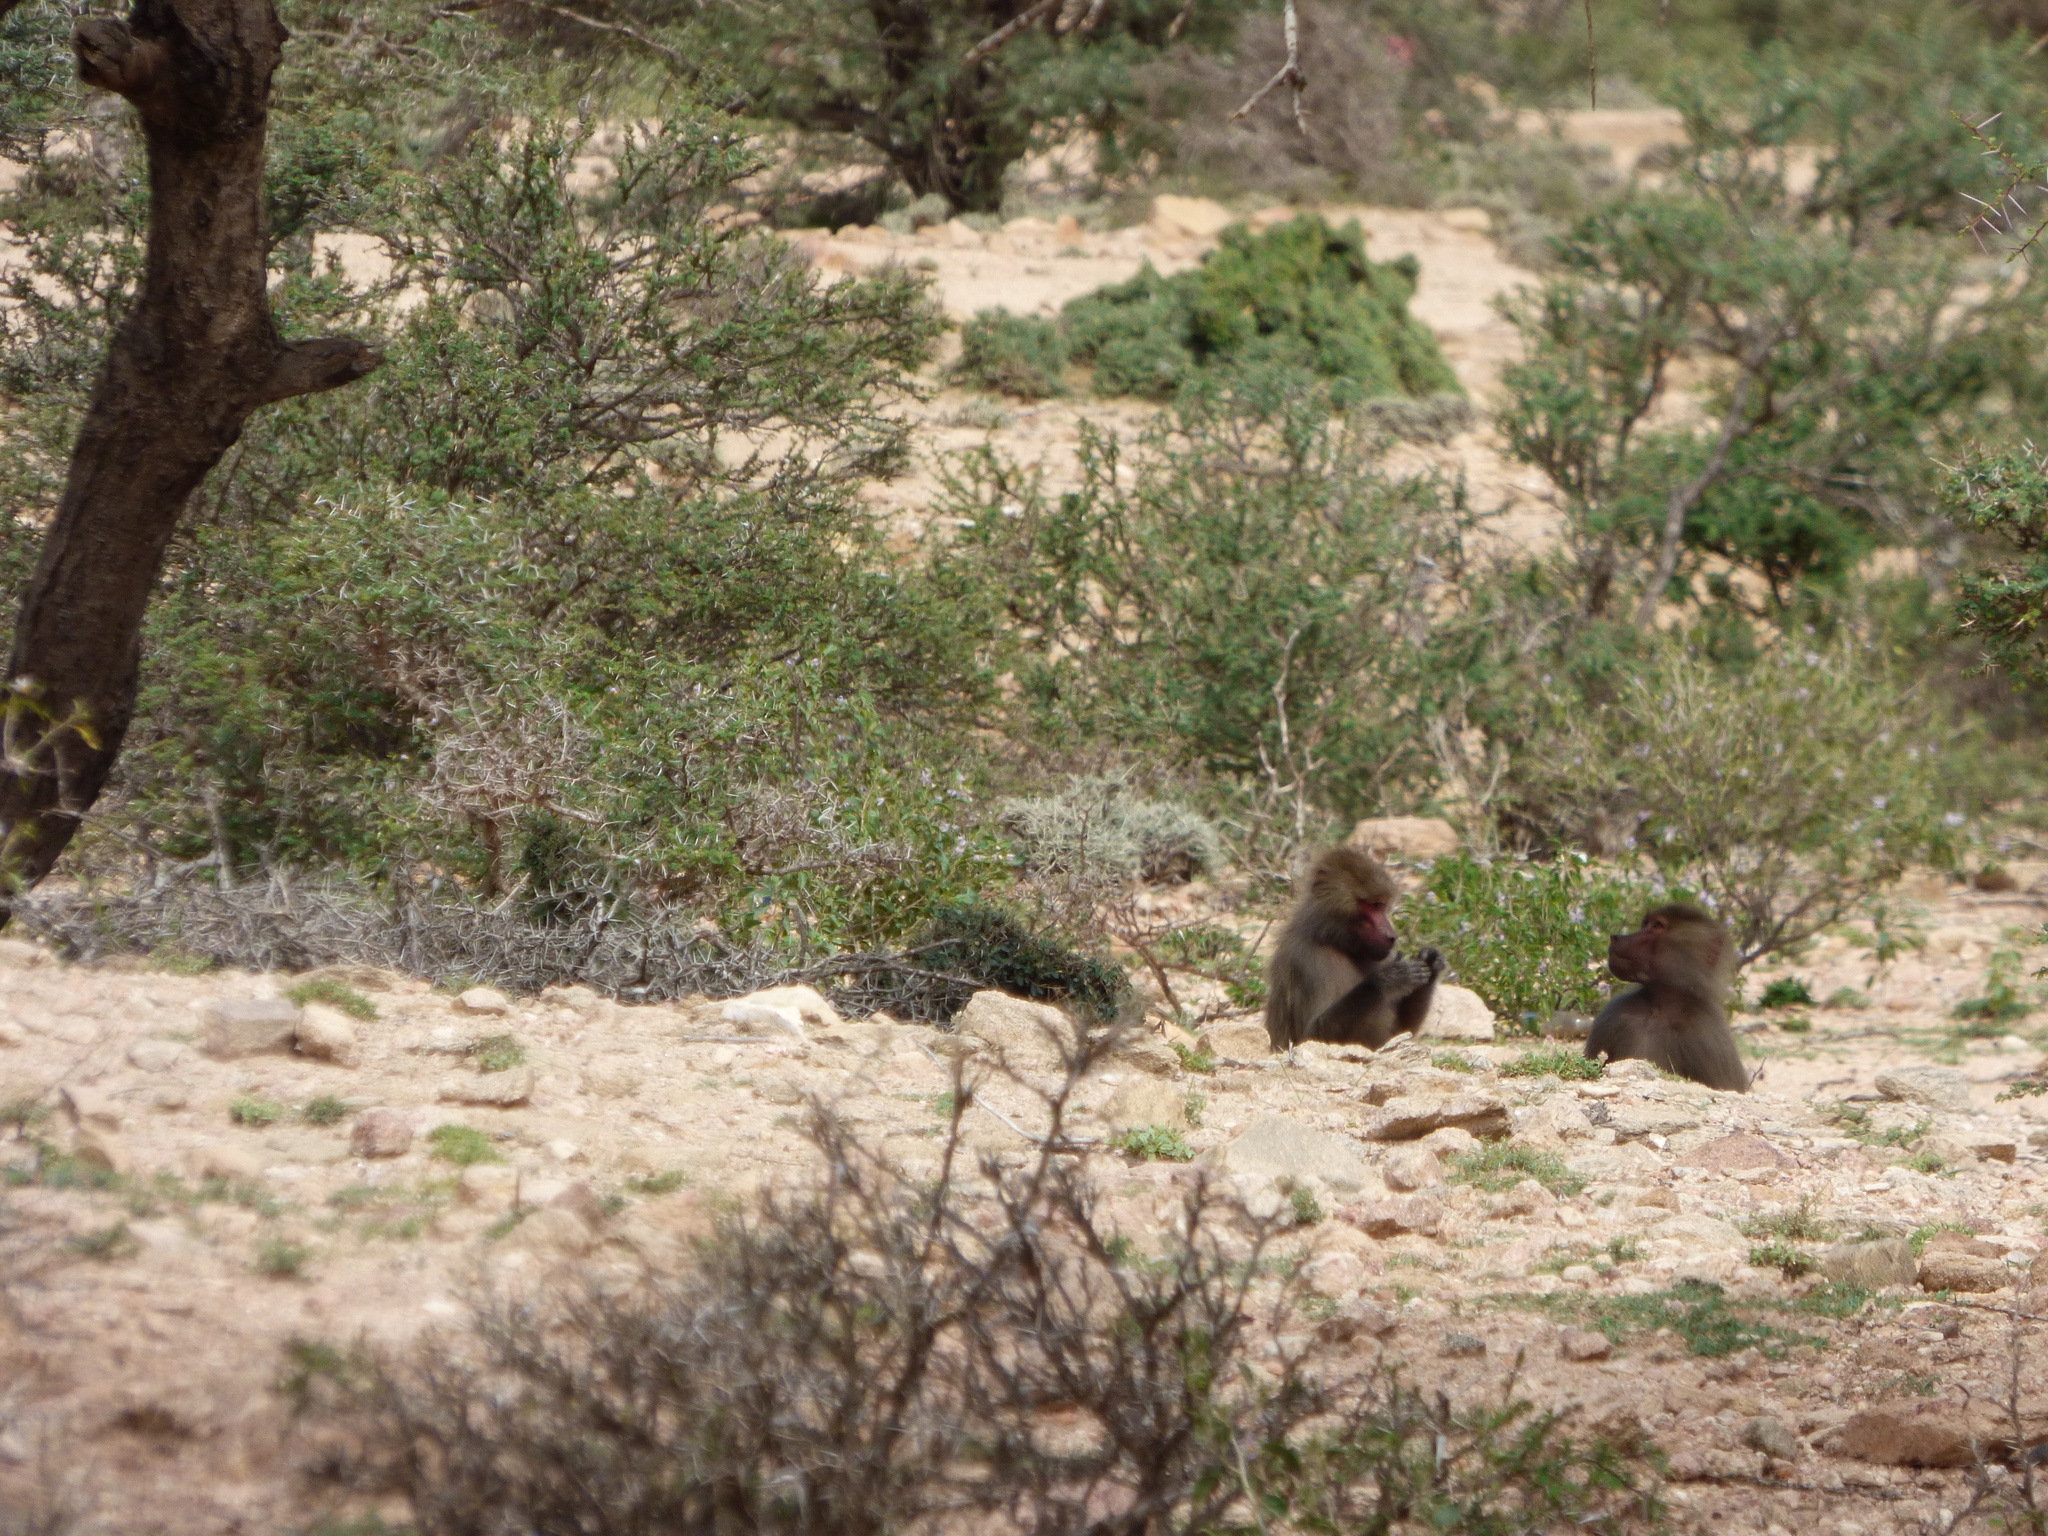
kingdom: Animalia
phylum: Chordata
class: Mammalia
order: Primates
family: Cercopithecidae
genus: Papio
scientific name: Papio hamadryas
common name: Hamadryas baboon
